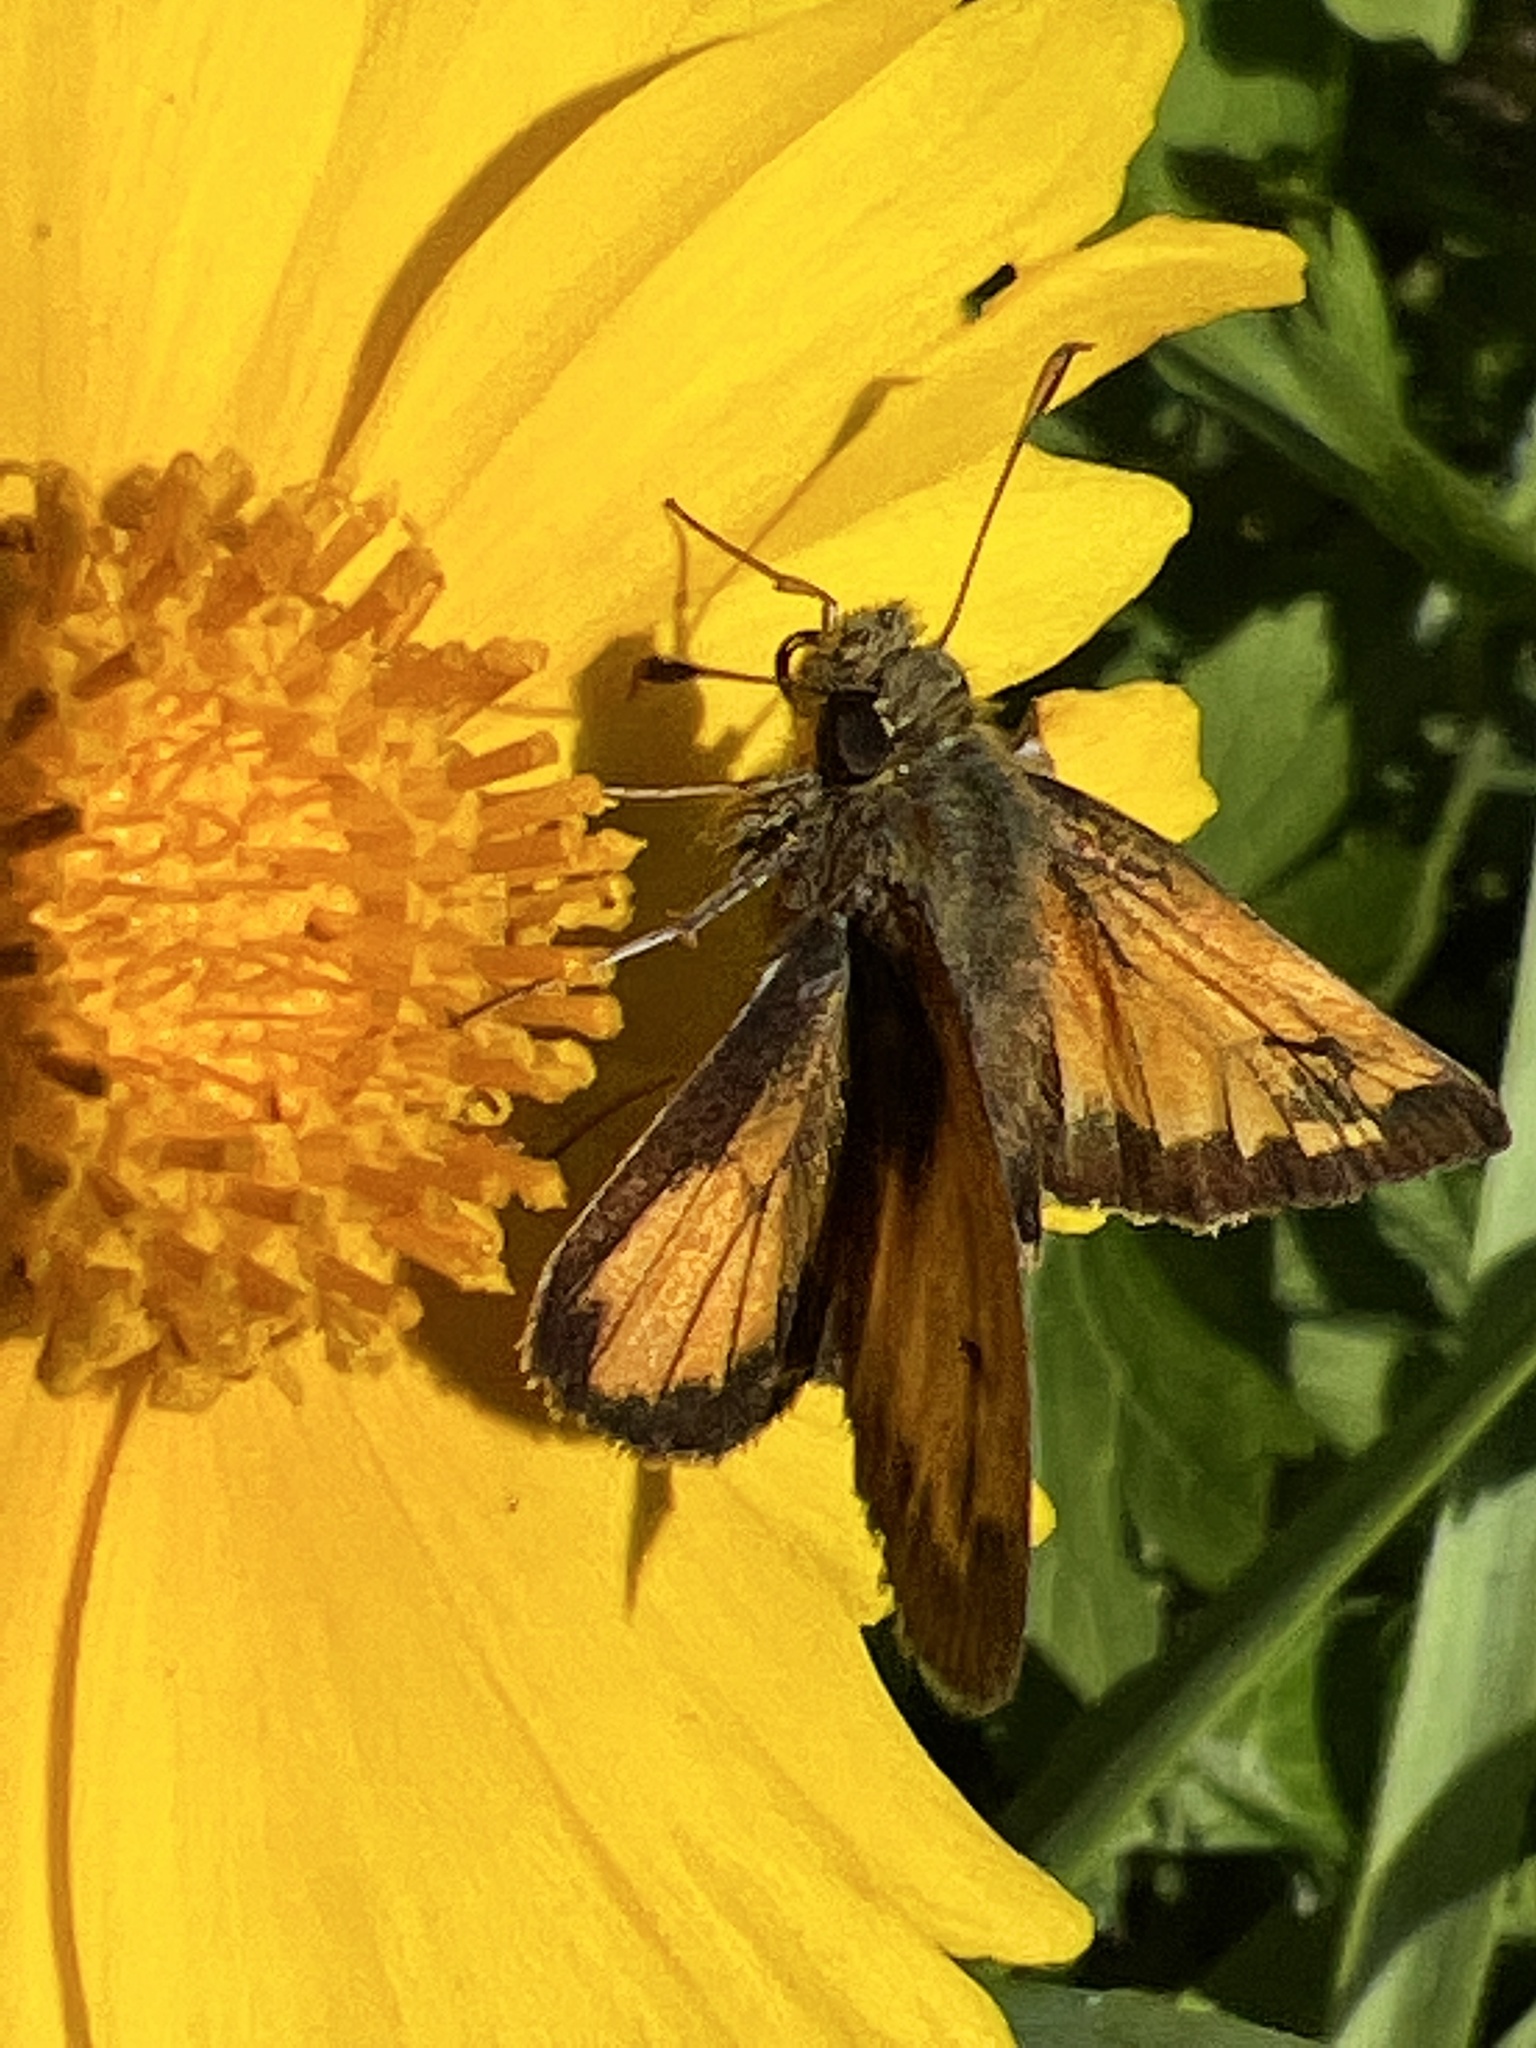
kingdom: Animalia
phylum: Arthropoda
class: Insecta
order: Lepidoptera
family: Hesperiidae
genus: Lon
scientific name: Lon hobomok
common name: Hobomok skipper
